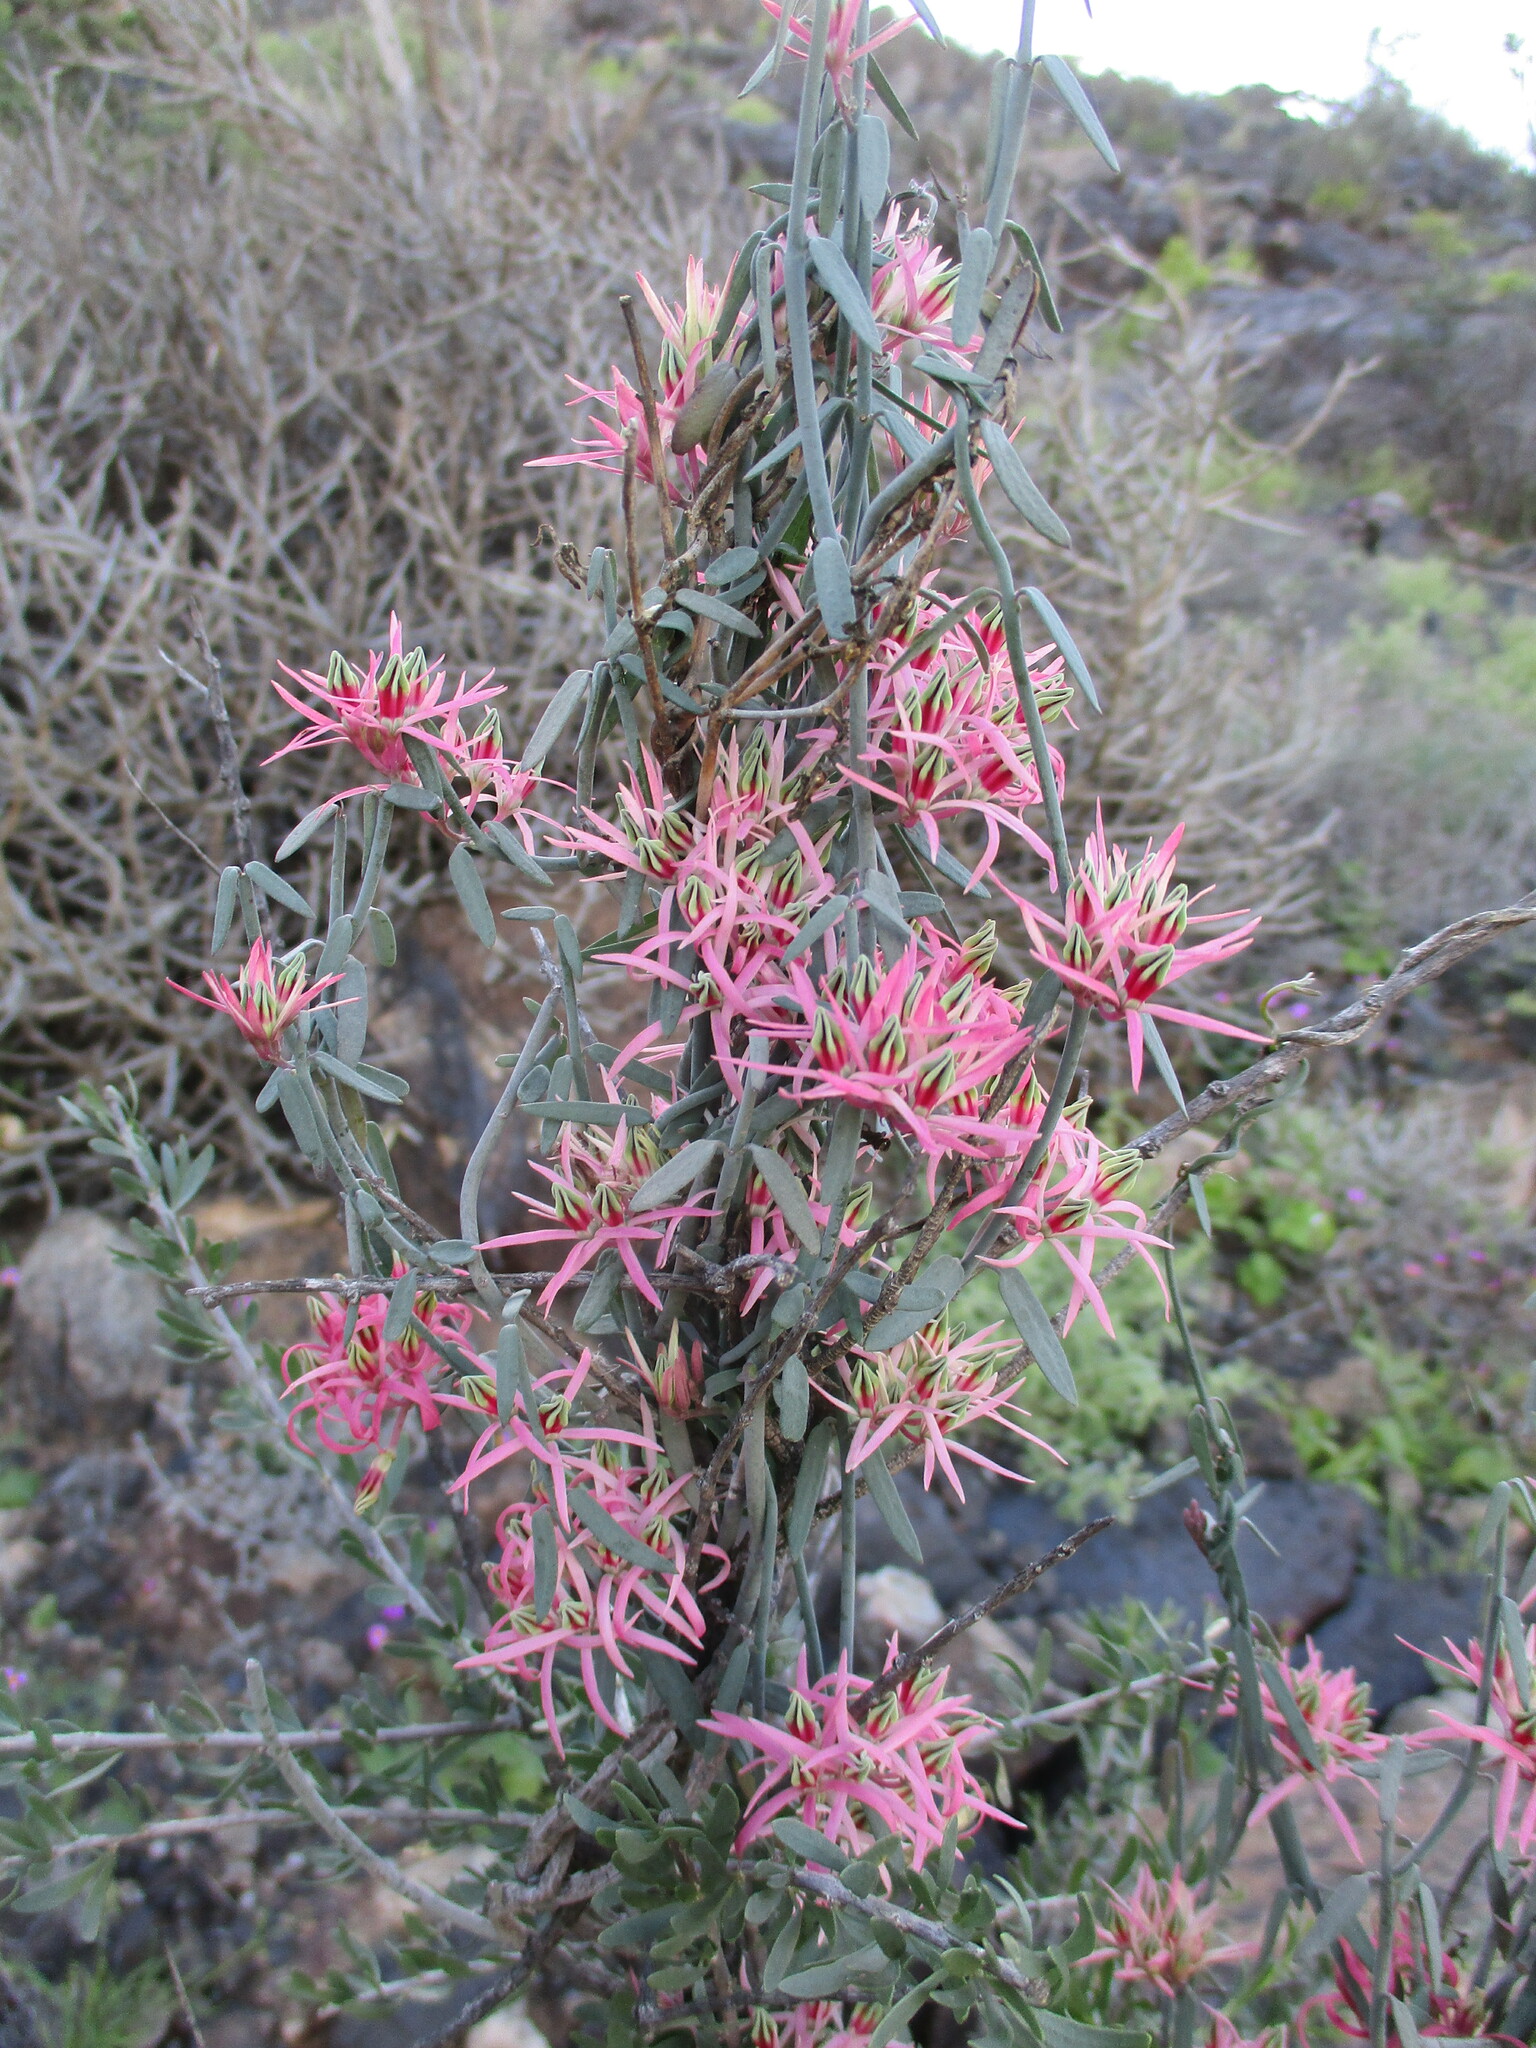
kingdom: Plantae
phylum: Tracheophyta
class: Magnoliopsida
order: Gentianales
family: Apocynaceae
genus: Microloma
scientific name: Microloma calycinum
